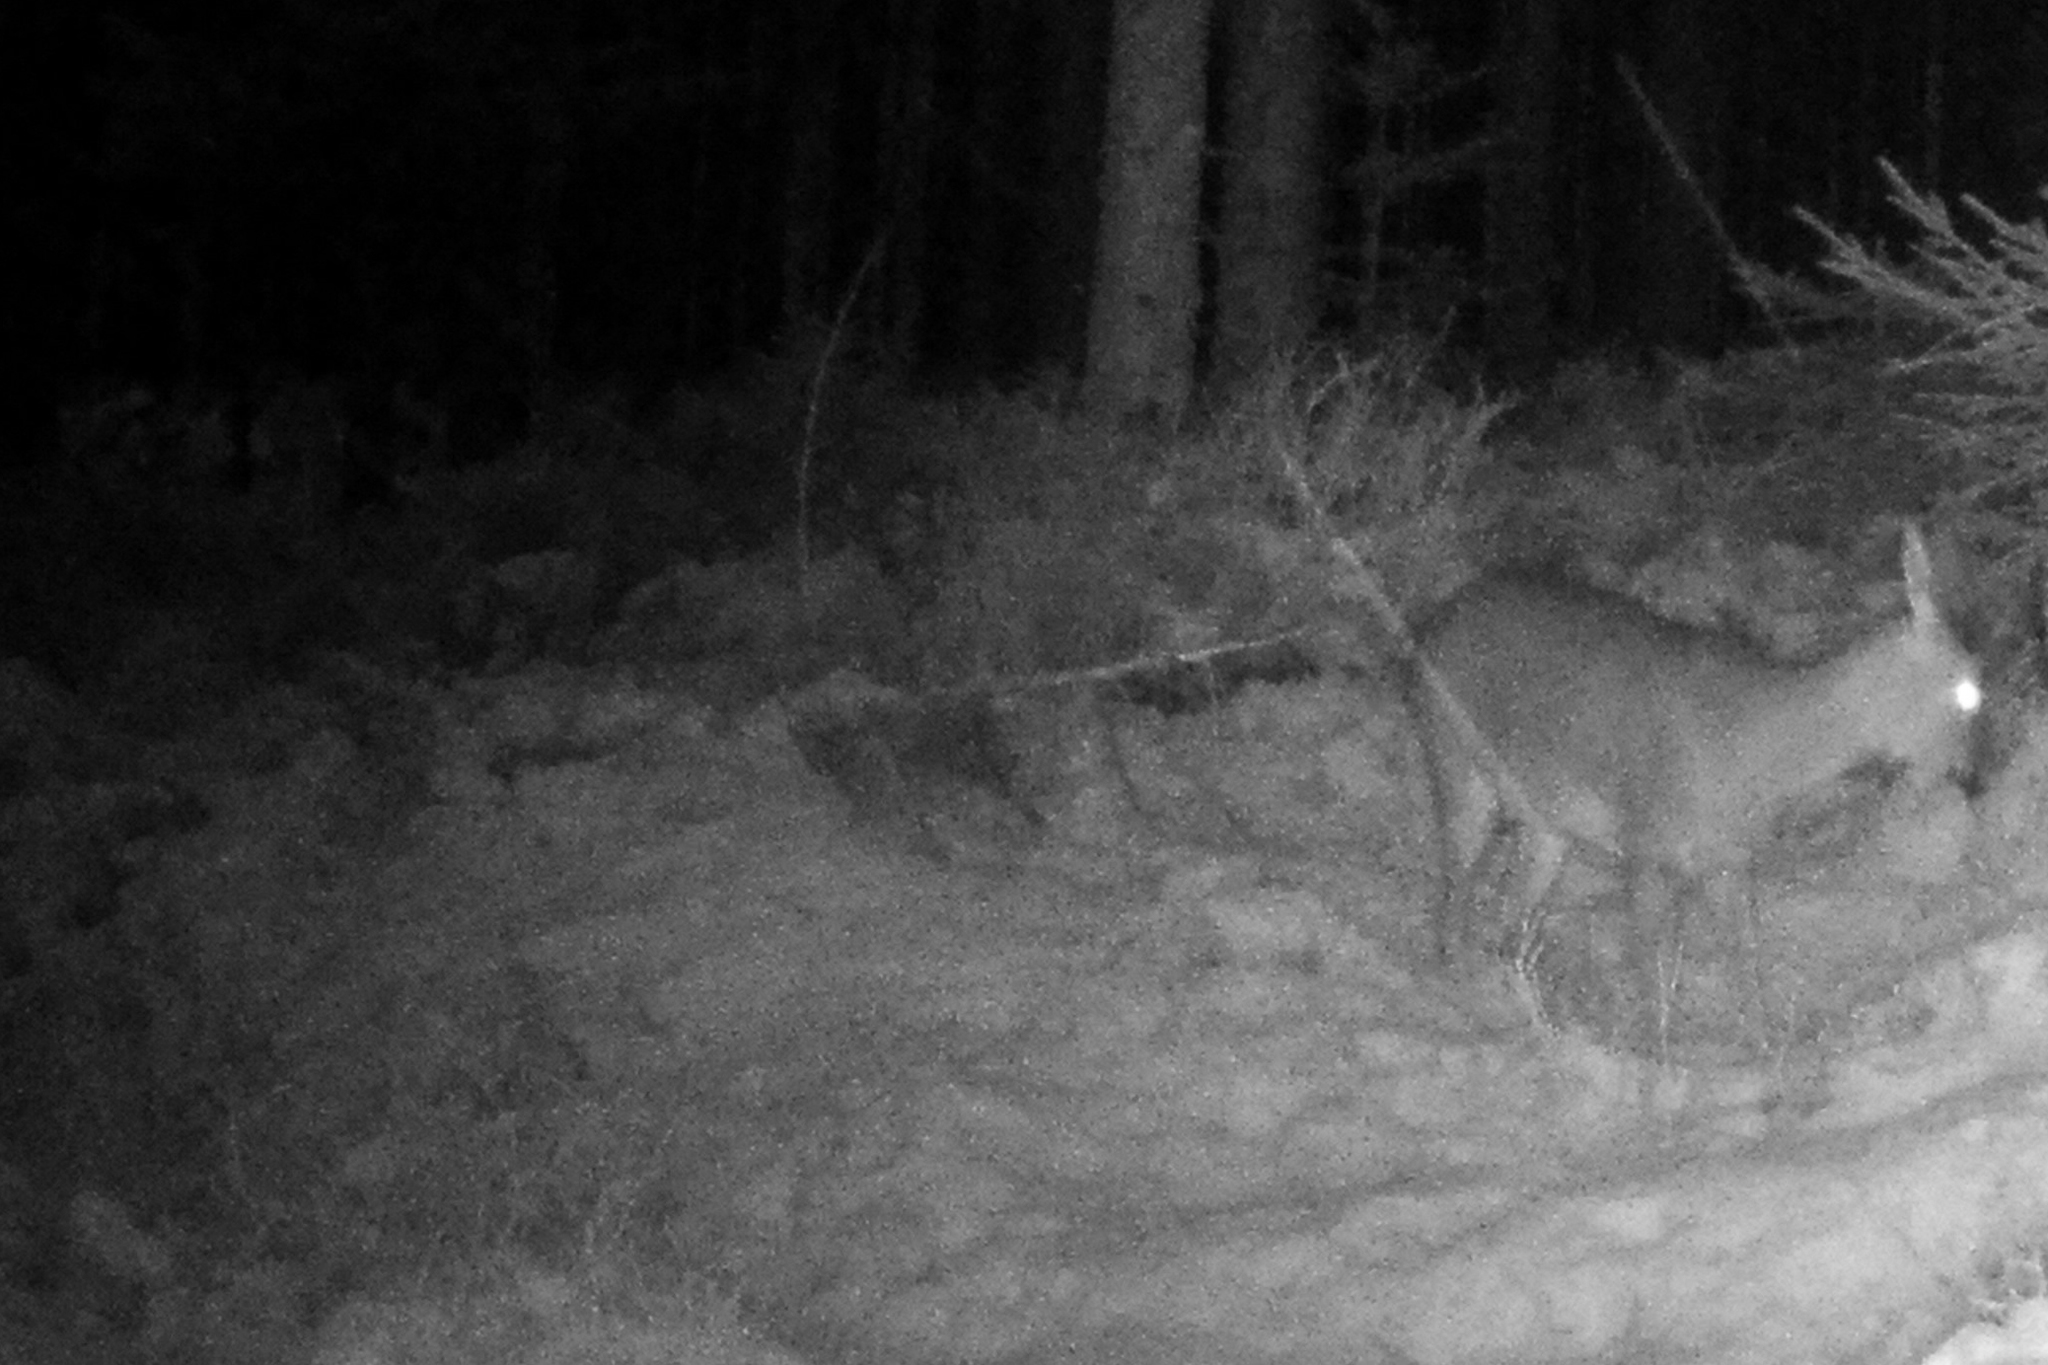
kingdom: Animalia
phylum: Chordata
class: Mammalia
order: Artiodactyla
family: Cervidae
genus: Capreolus
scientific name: Capreolus capreolus
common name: Western roe deer
